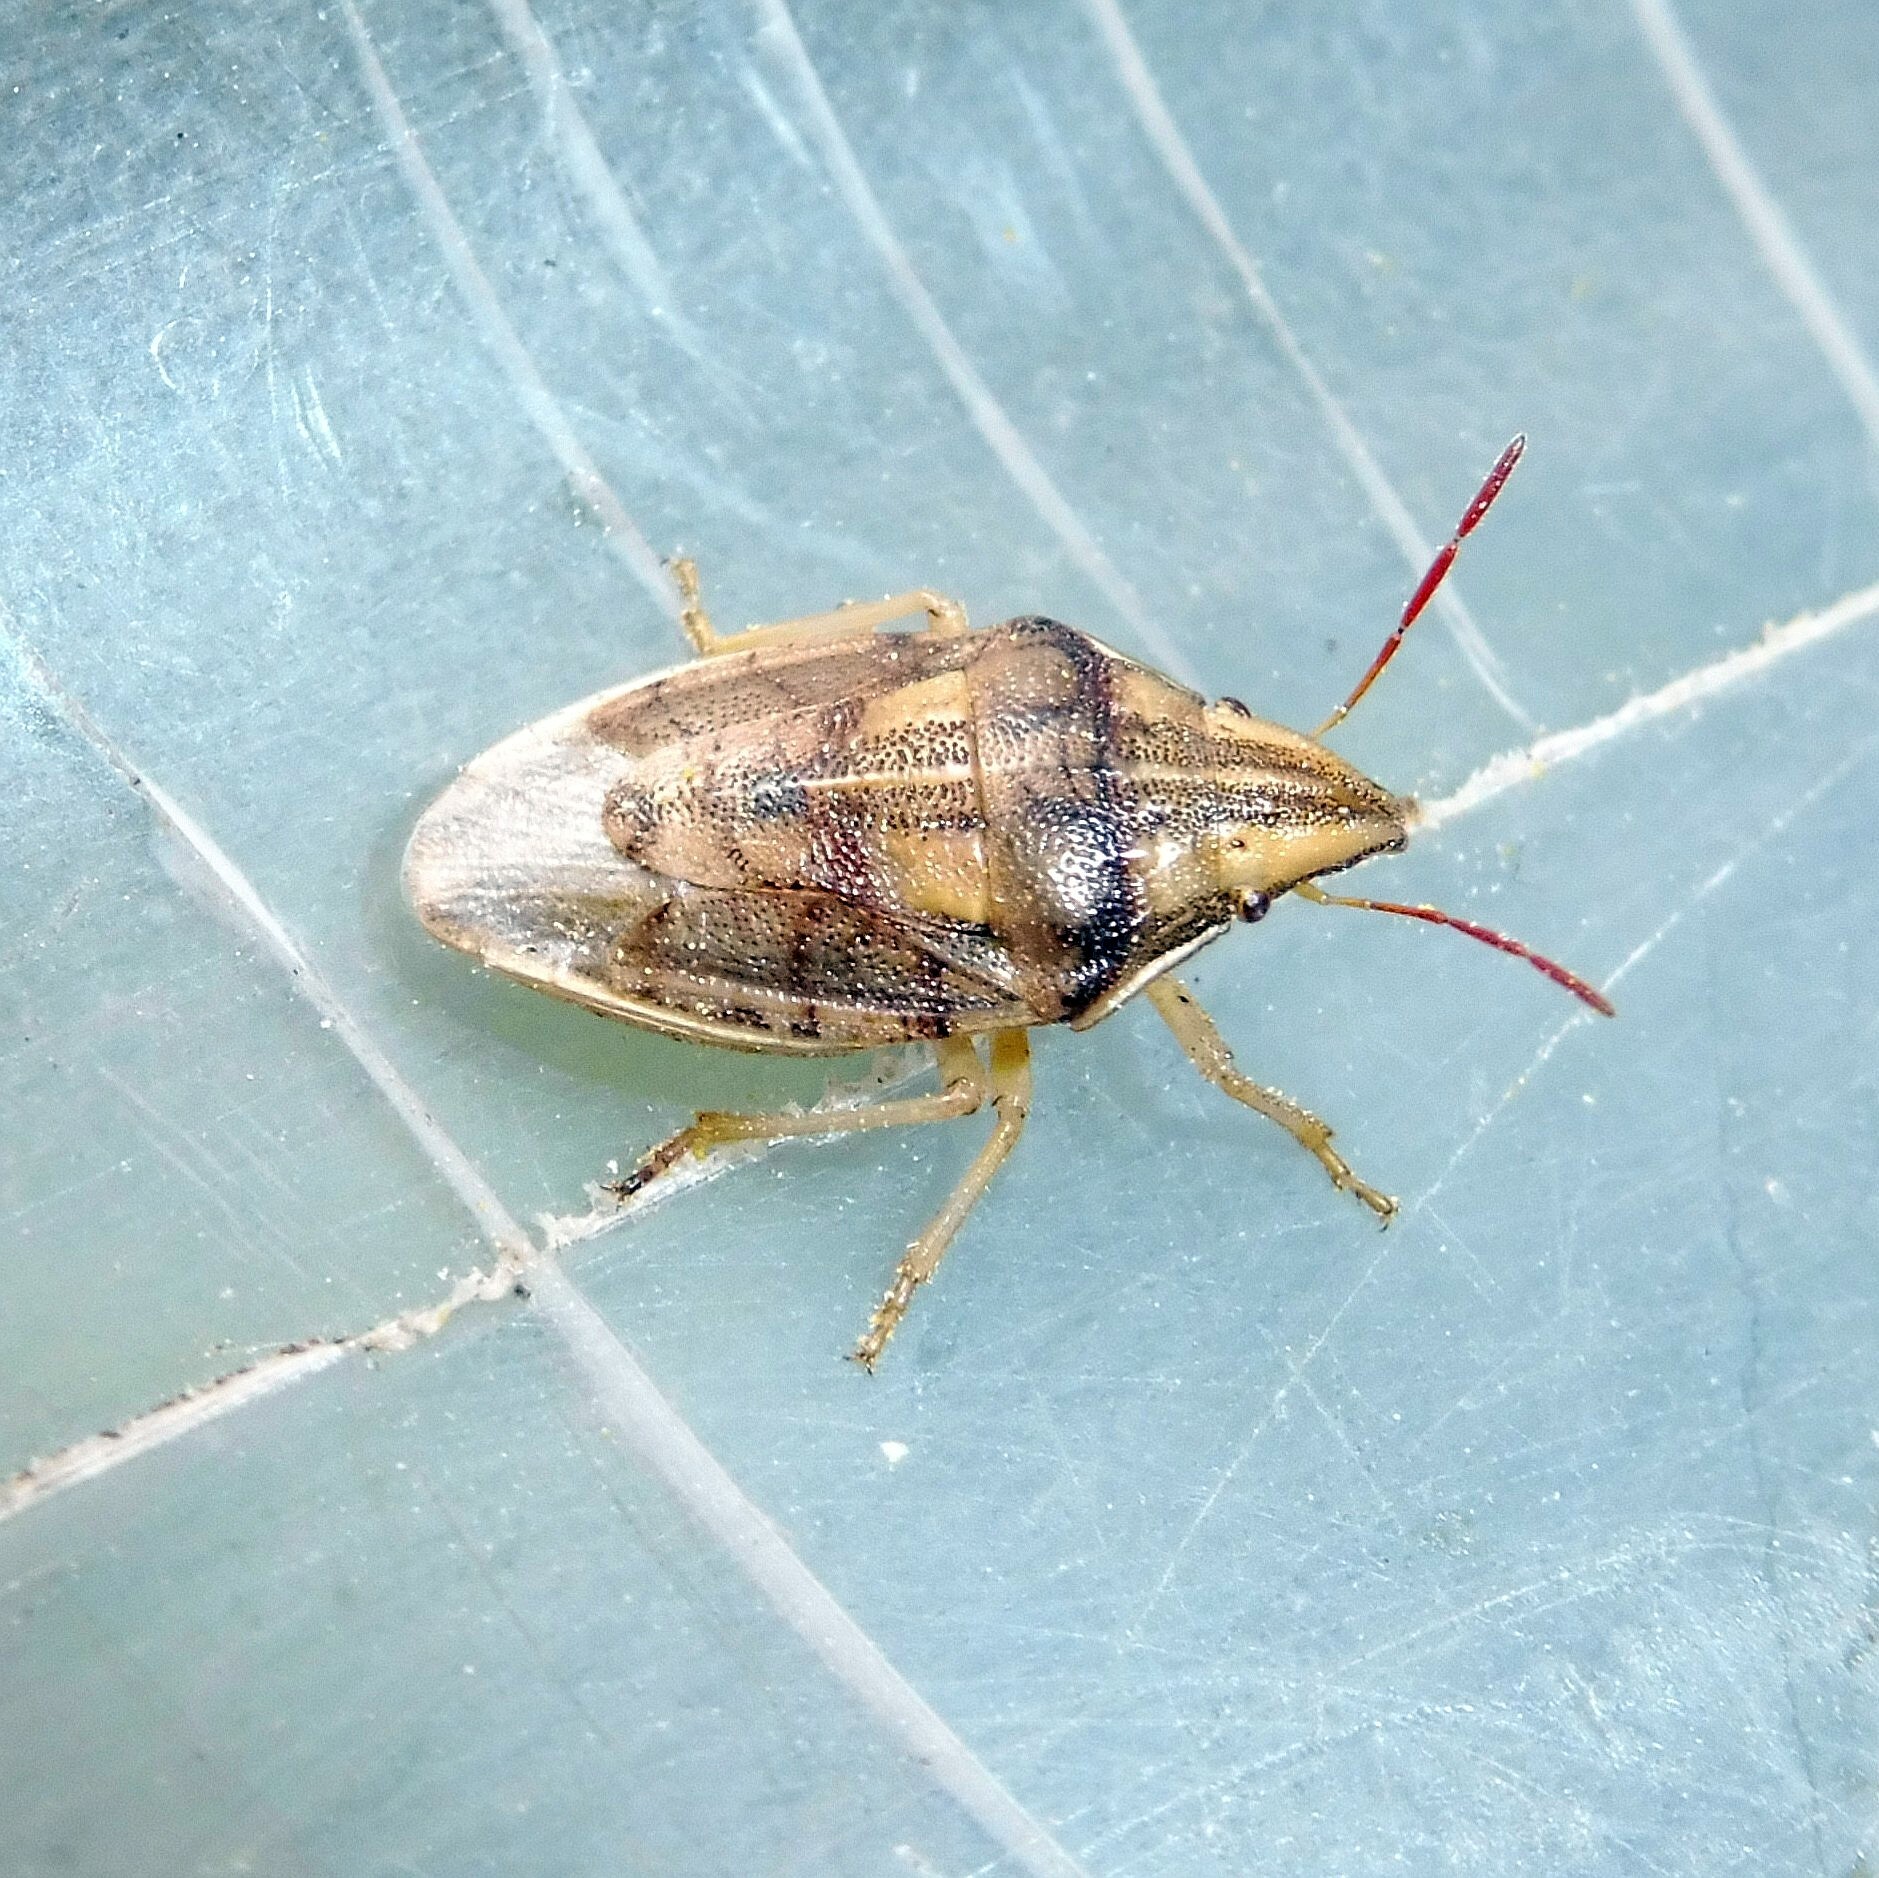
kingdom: Animalia
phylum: Arthropoda
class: Insecta
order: Hemiptera
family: Pentatomidae
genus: Aelia
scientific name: Aelia acuminata
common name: Bishop's mitre
